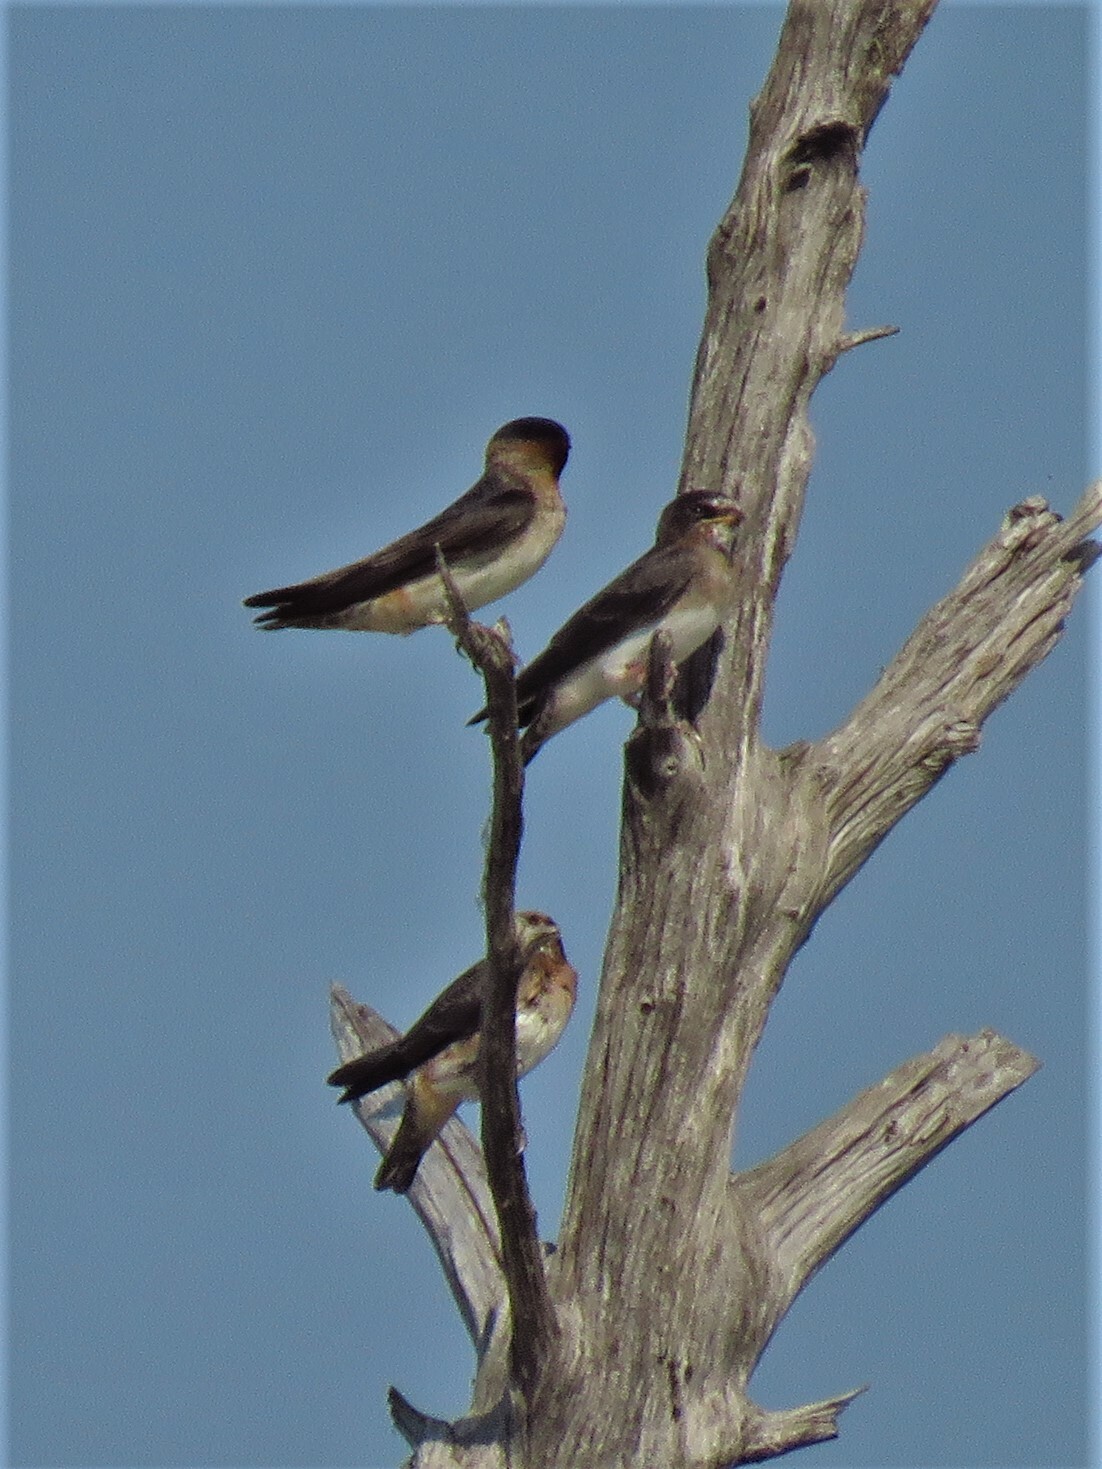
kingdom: Animalia
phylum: Chordata
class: Aves
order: Passeriformes
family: Hirundinidae
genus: Petrochelidon
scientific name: Petrochelidon pyrrhonota
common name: American cliff swallow
